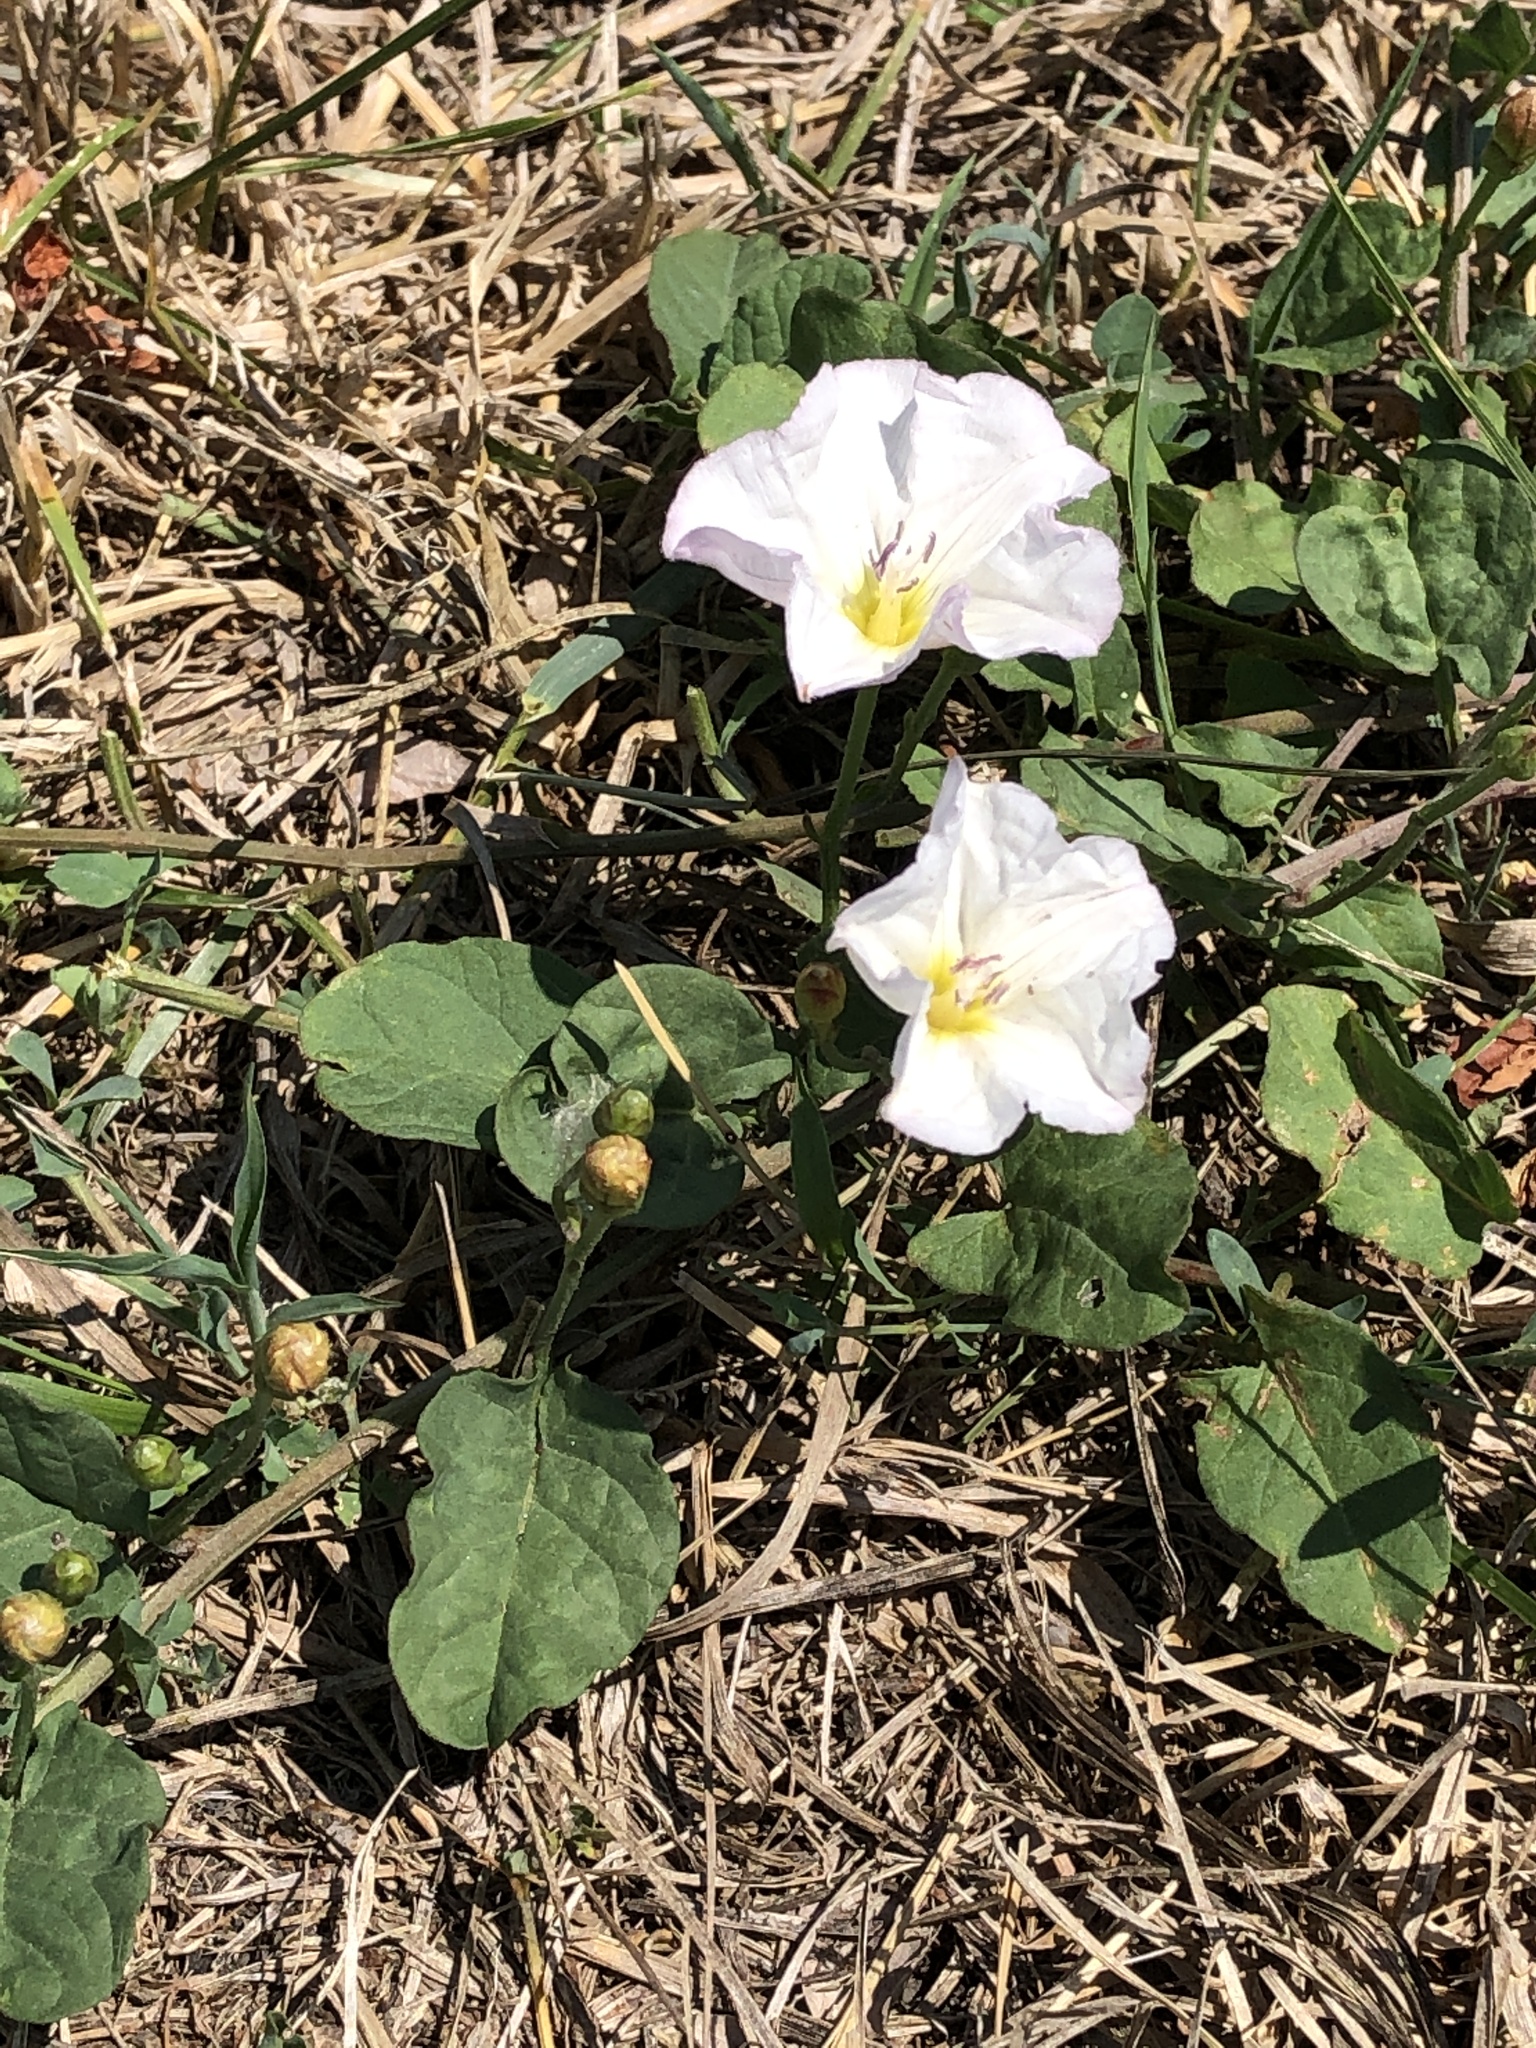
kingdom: Plantae
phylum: Tracheophyta
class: Magnoliopsida
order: Solanales
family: Convolvulaceae
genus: Convolvulus
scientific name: Convolvulus arvensis
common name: Field bindweed
